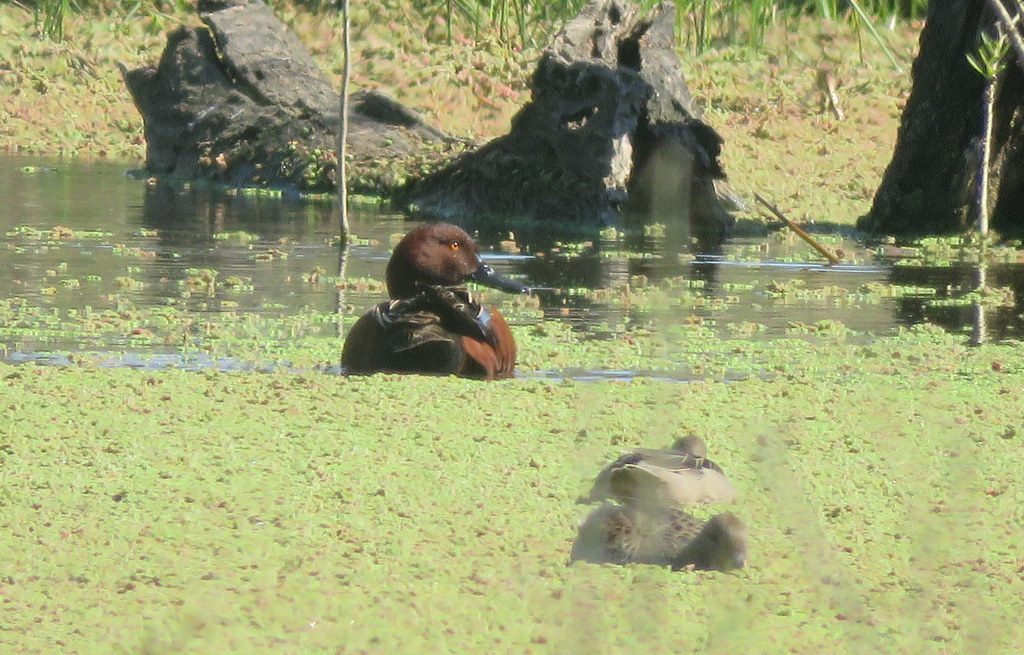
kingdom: Animalia
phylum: Chordata
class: Aves
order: Anseriformes
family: Anatidae
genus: Spatula
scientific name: Spatula cyanoptera
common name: Cinnamon teal
